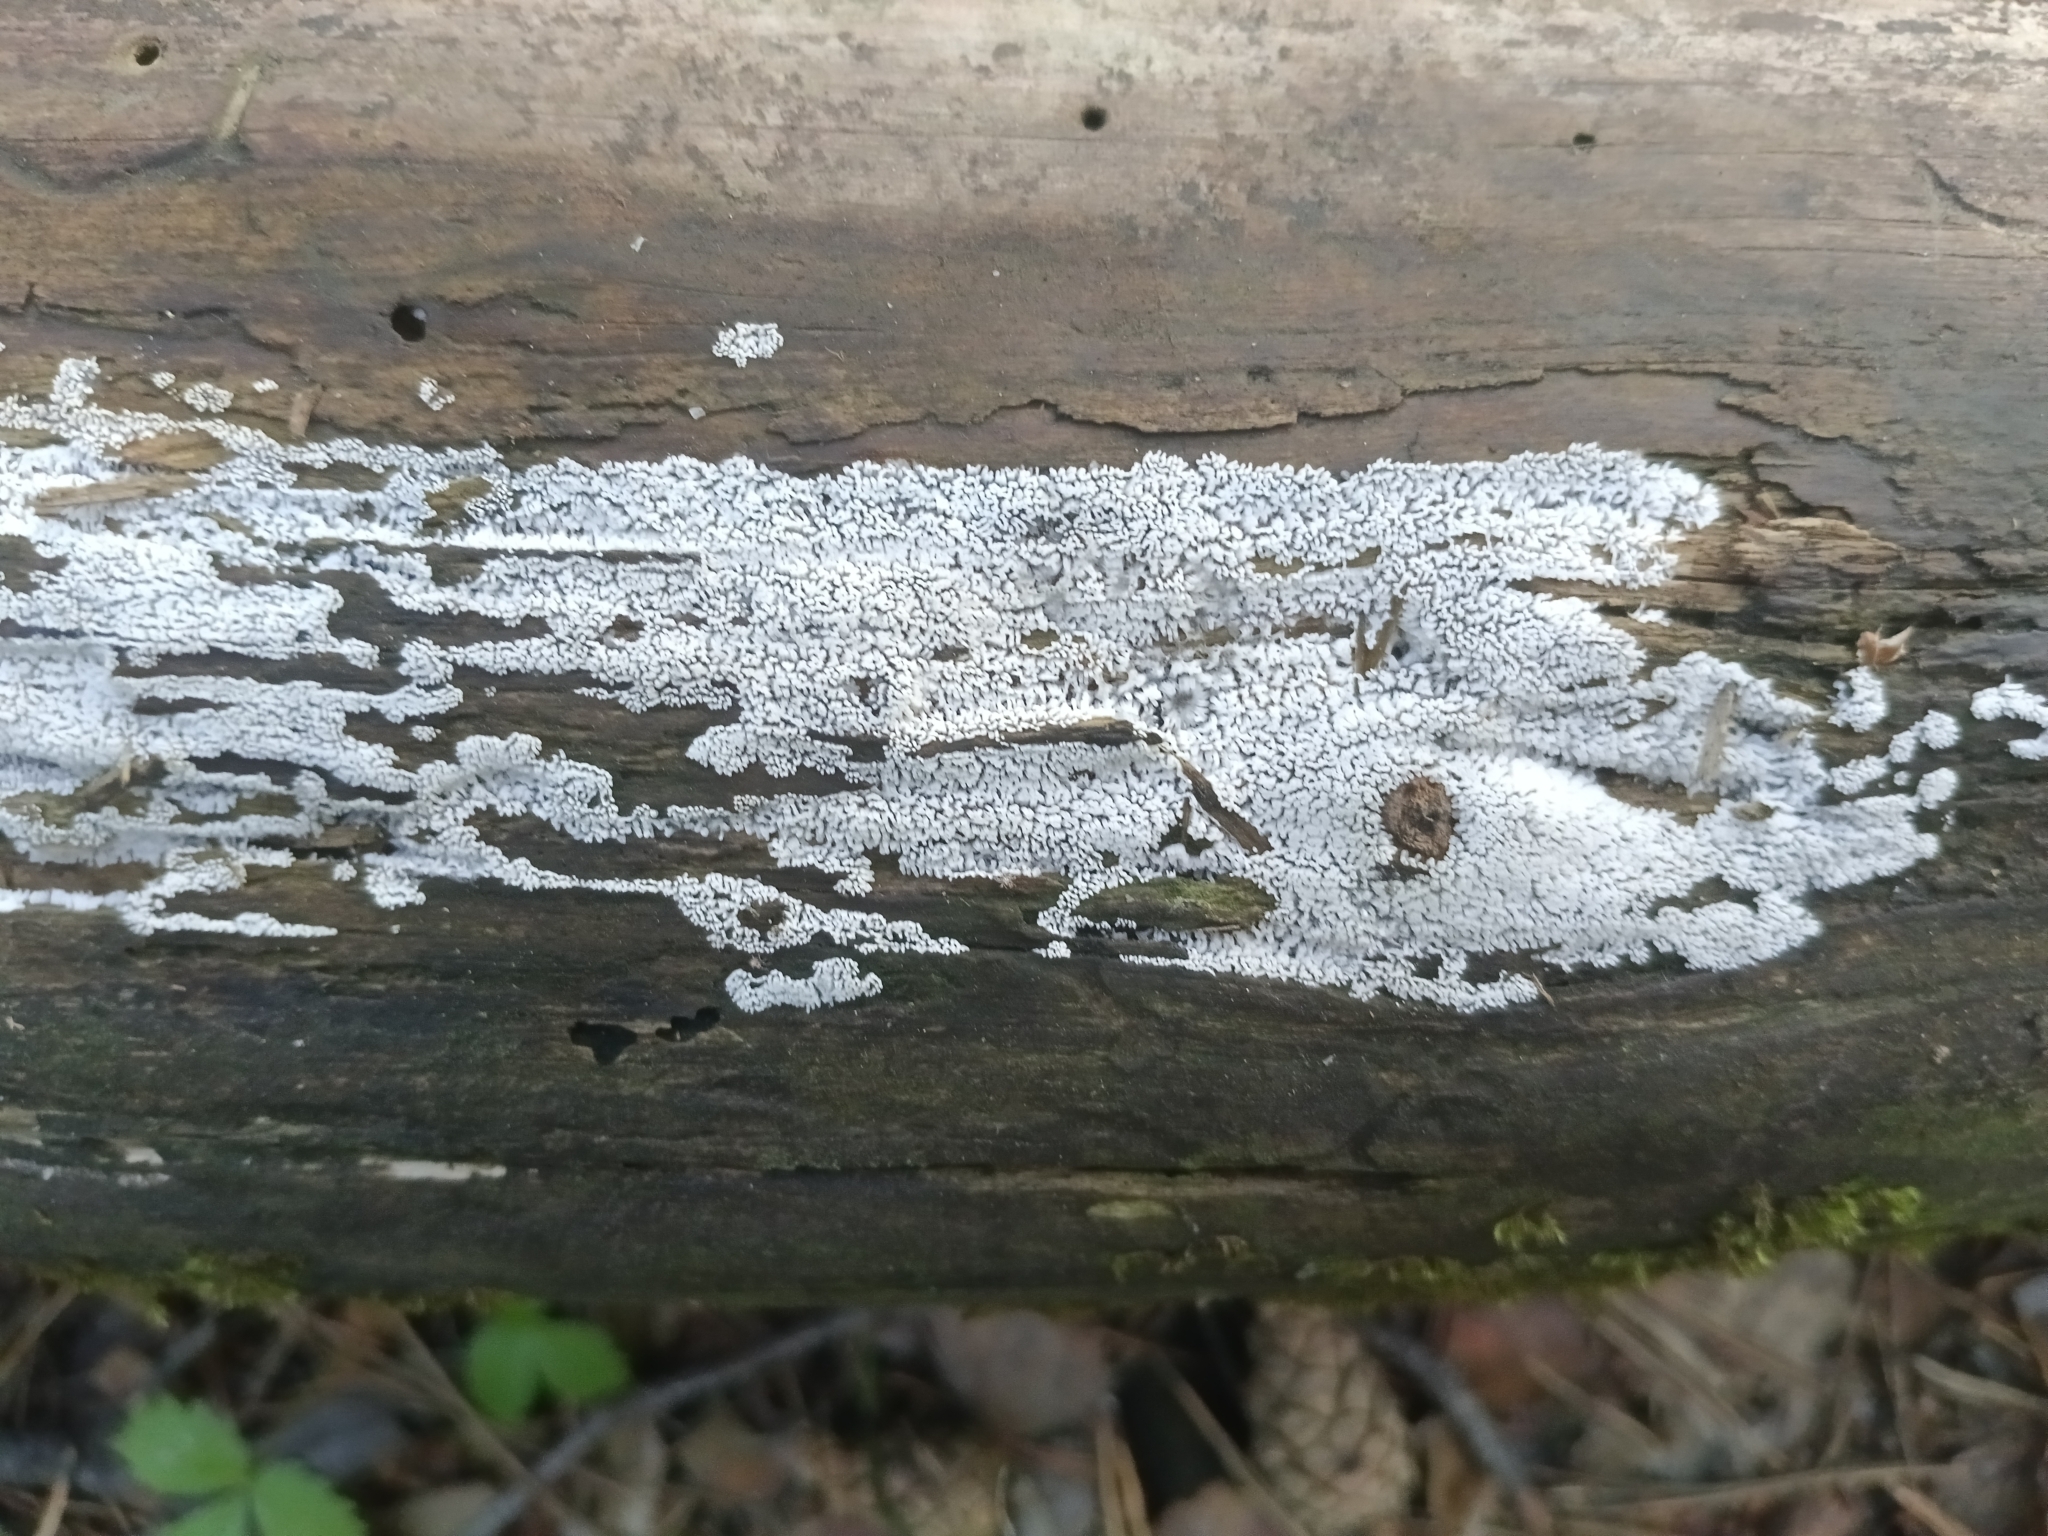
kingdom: Protozoa
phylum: Mycetozoa
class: Protosteliomycetes
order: Ceratiomyxales
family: Ceratiomyxaceae
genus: Ceratiomyxa
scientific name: Ceratiomyxa fruticulosa
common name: Honeycomb coral slime mold
